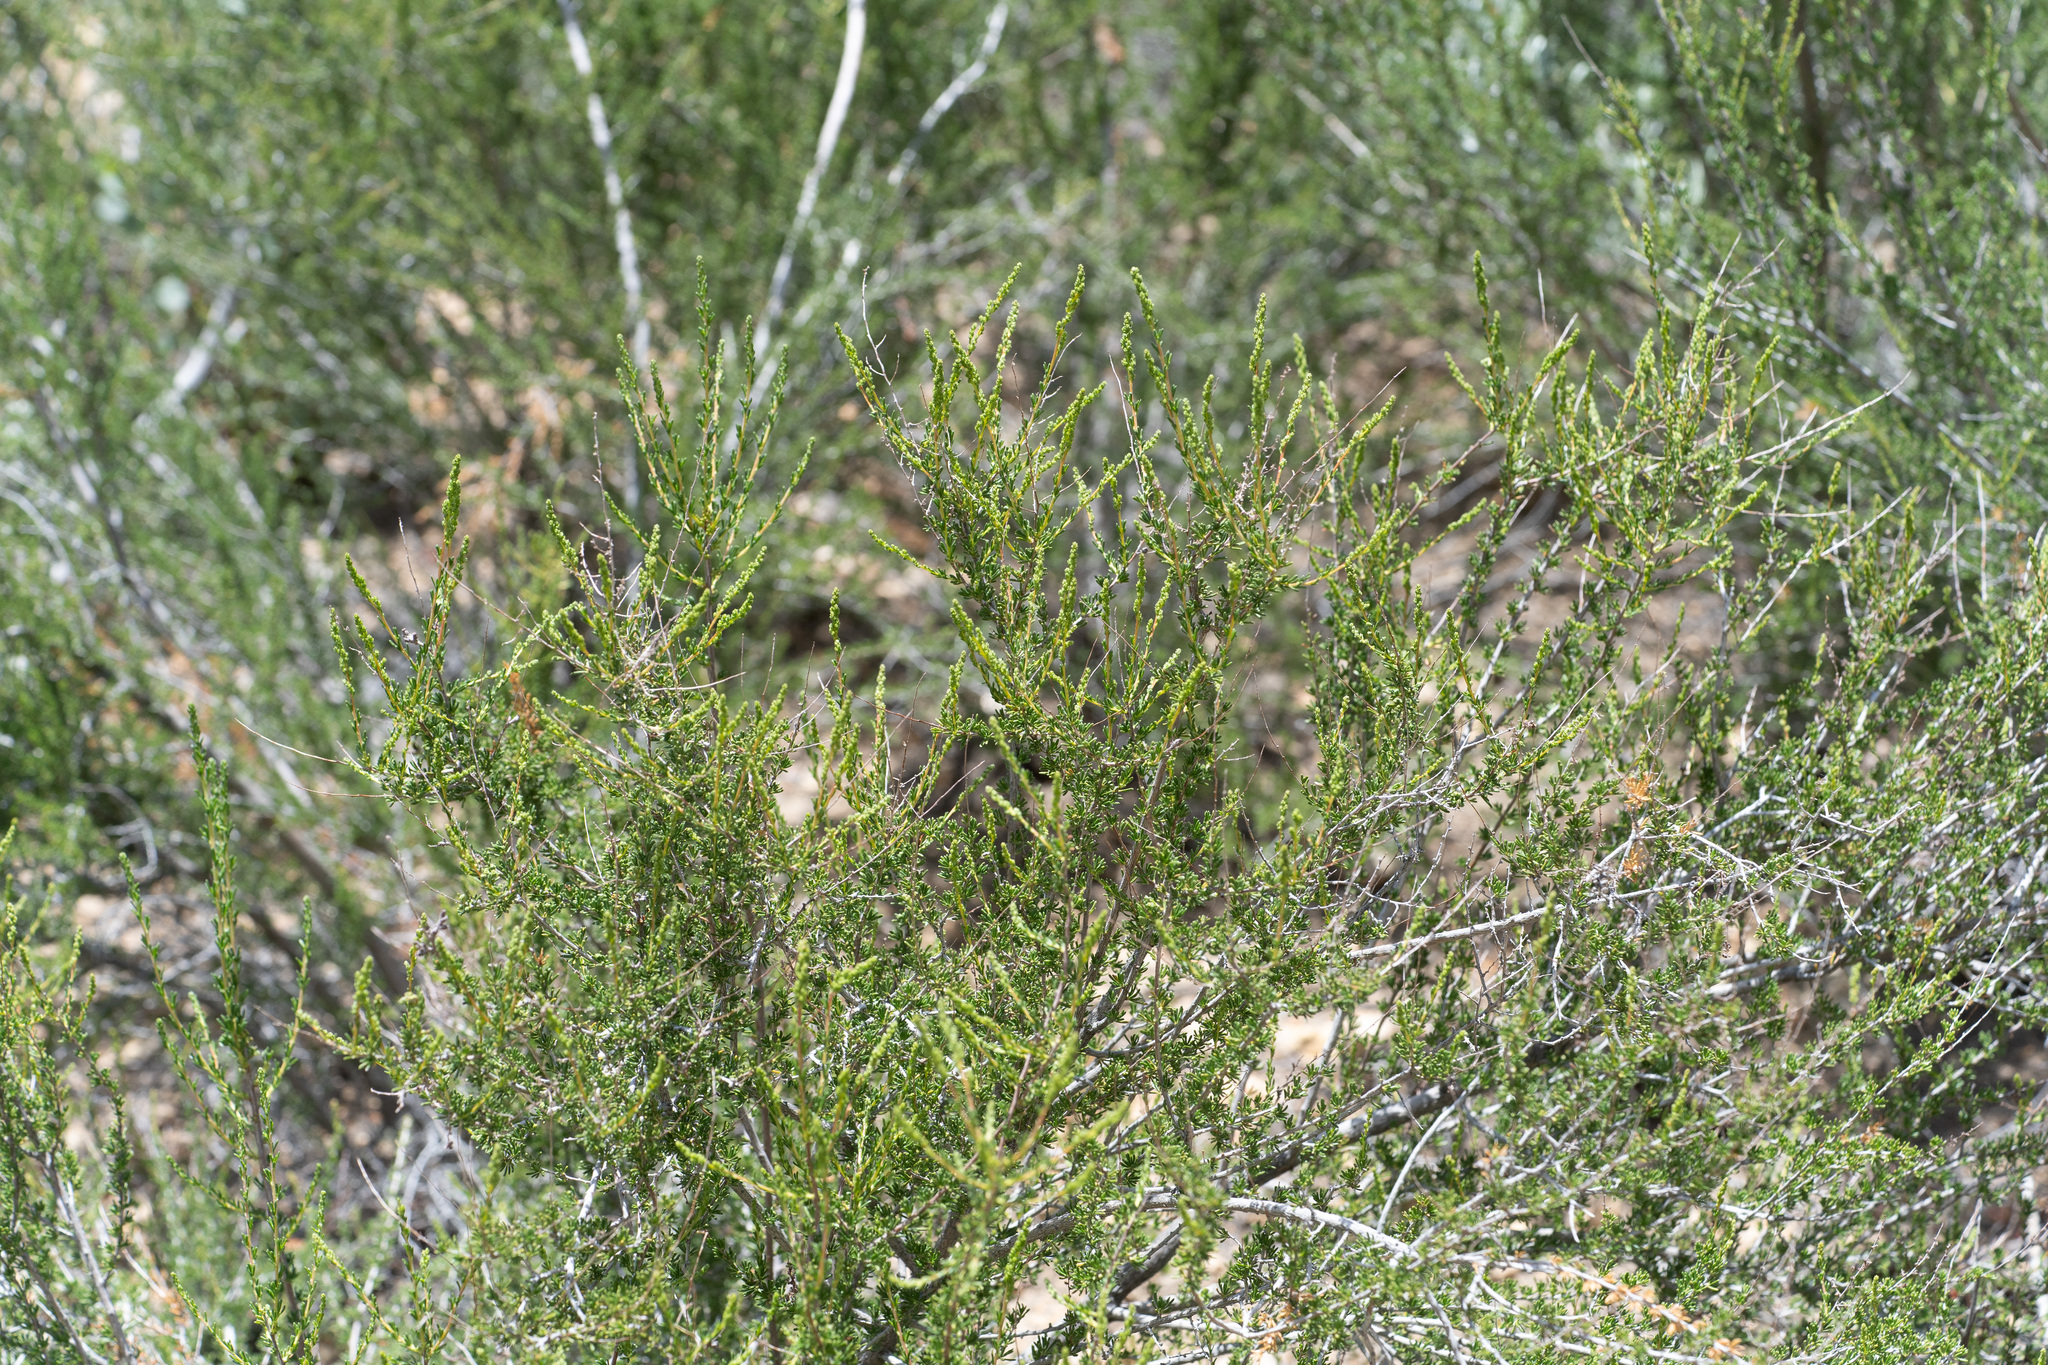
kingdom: Plantae
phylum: Tracheophyta
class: Magnoliopsida
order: Rosales
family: Rosaceae
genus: Adenostoma
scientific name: Adenostoma fasciculatum
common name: Chamise
